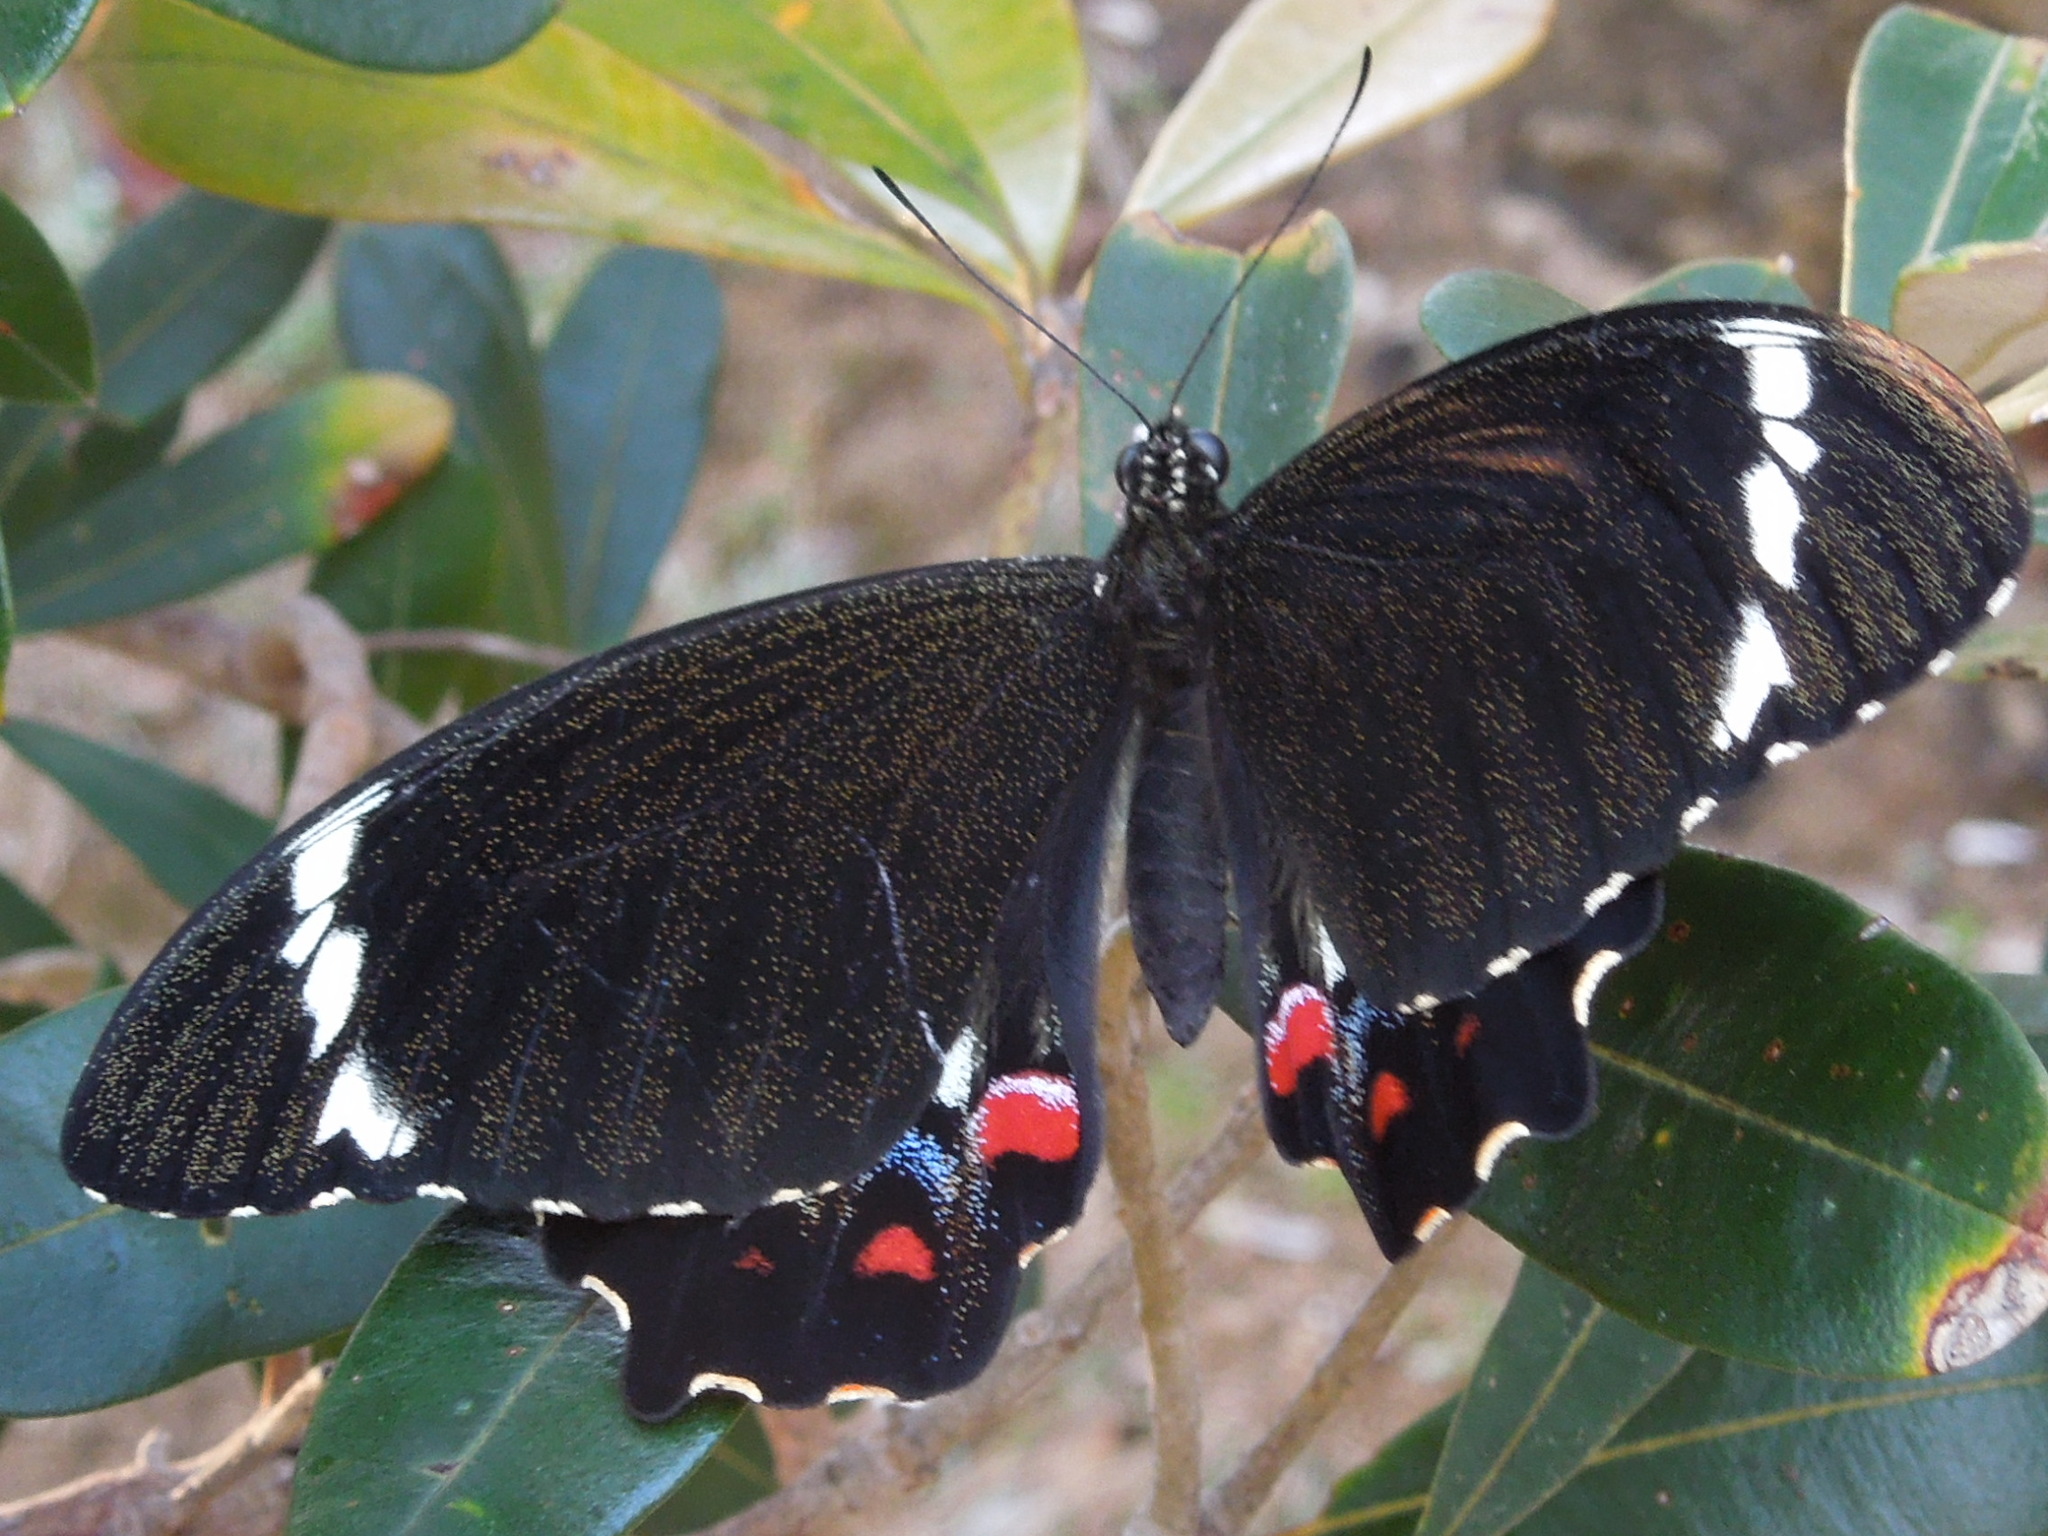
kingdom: Animalia
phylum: Arthropoda
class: Insecta
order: Lepidoptera
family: Papilionidae
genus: Papilio
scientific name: Papilio aegeus
